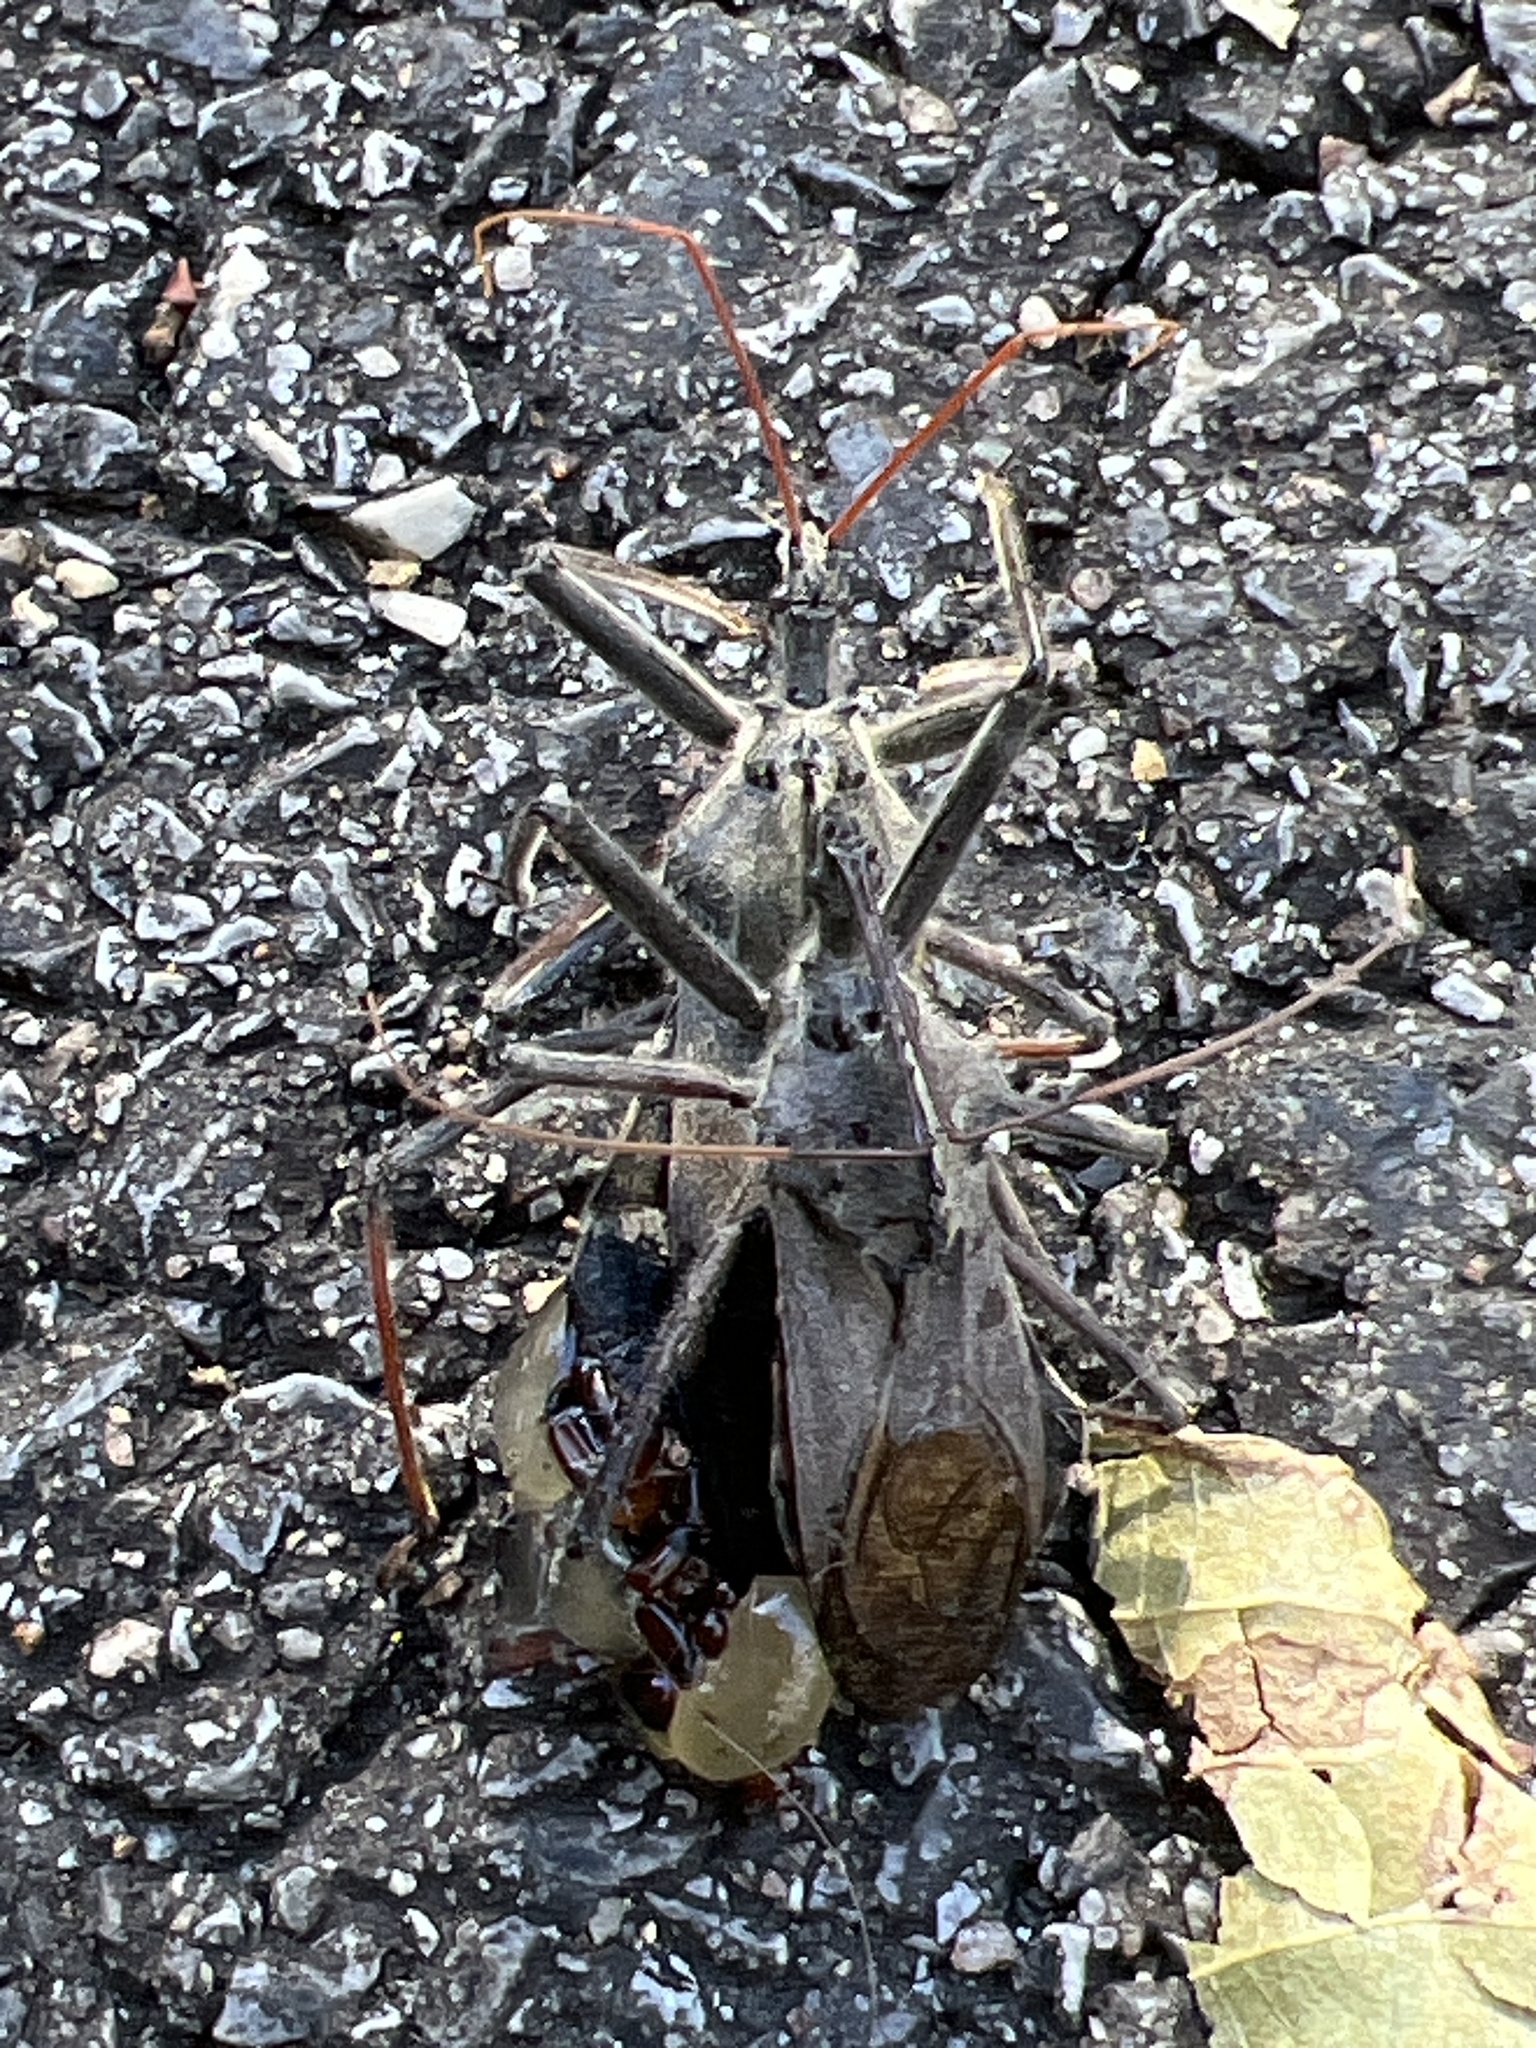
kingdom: Animalia
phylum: Arthropoda
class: Insecta
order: Hemiptera
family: Reduviidae
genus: Arilus
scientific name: Arilus cristatus
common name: North american wheel bug
